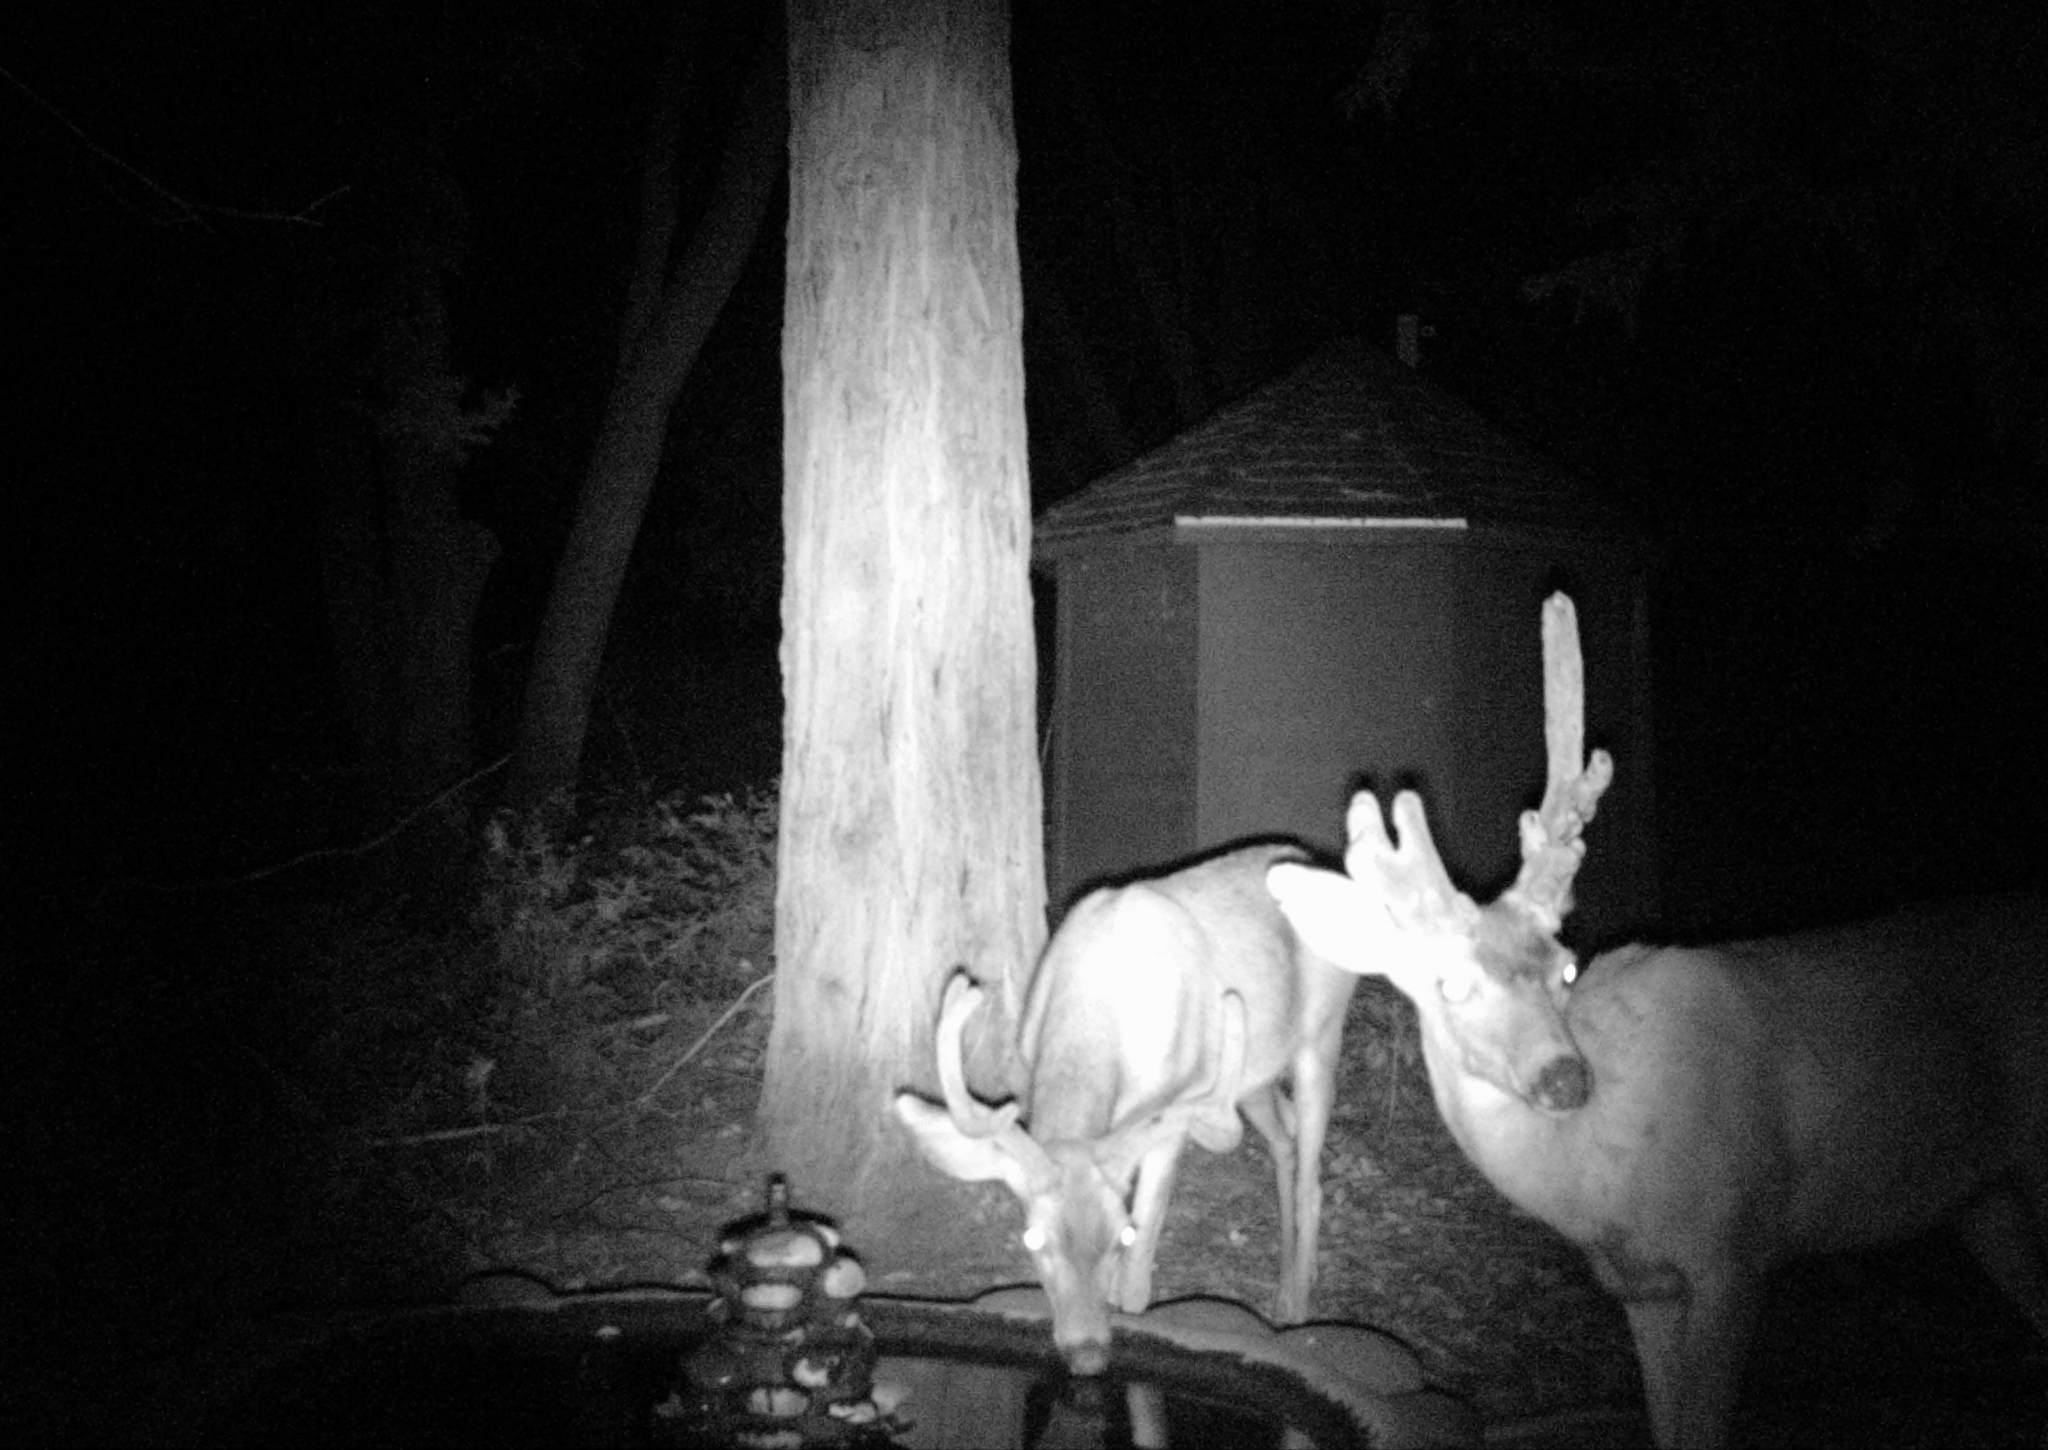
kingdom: Animalia
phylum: Chordata
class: Mammalia
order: Artiodactyla
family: Cervidae
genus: Odocoileus
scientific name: Odocoileus hemionus
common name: Mule deer
